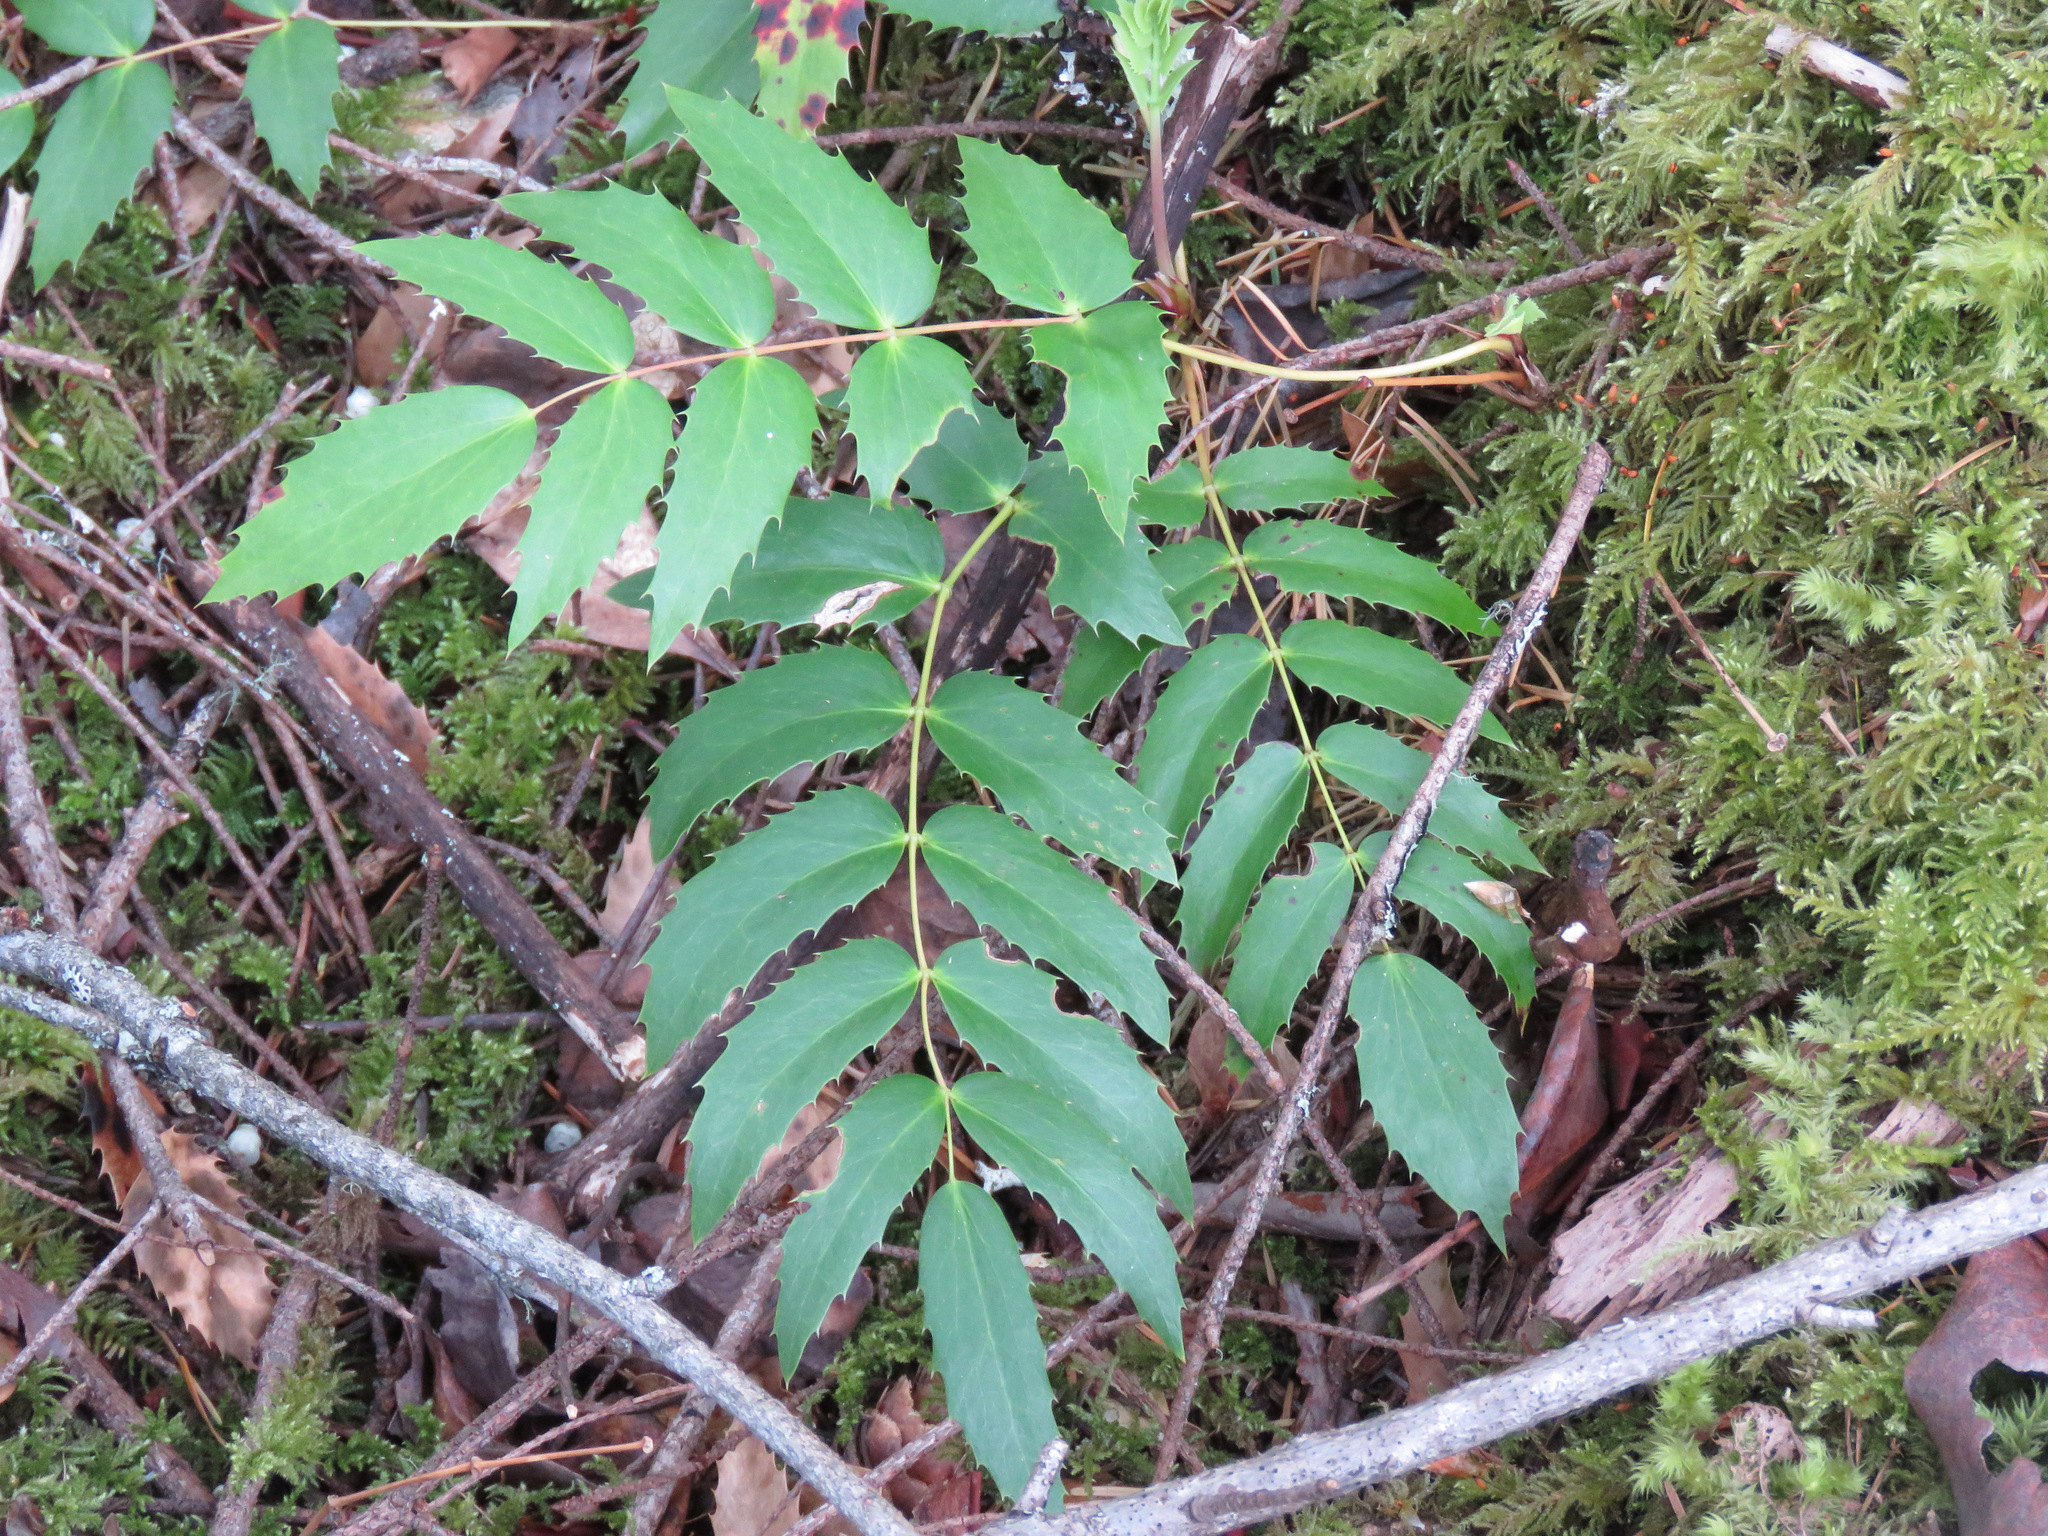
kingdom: Plantae
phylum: Tracheophyta
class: Magnoliopsida
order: Ranunculales
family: Berberidaceae
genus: Mahonia
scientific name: Mahonia nervosa
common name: Cascade oregon-grape
